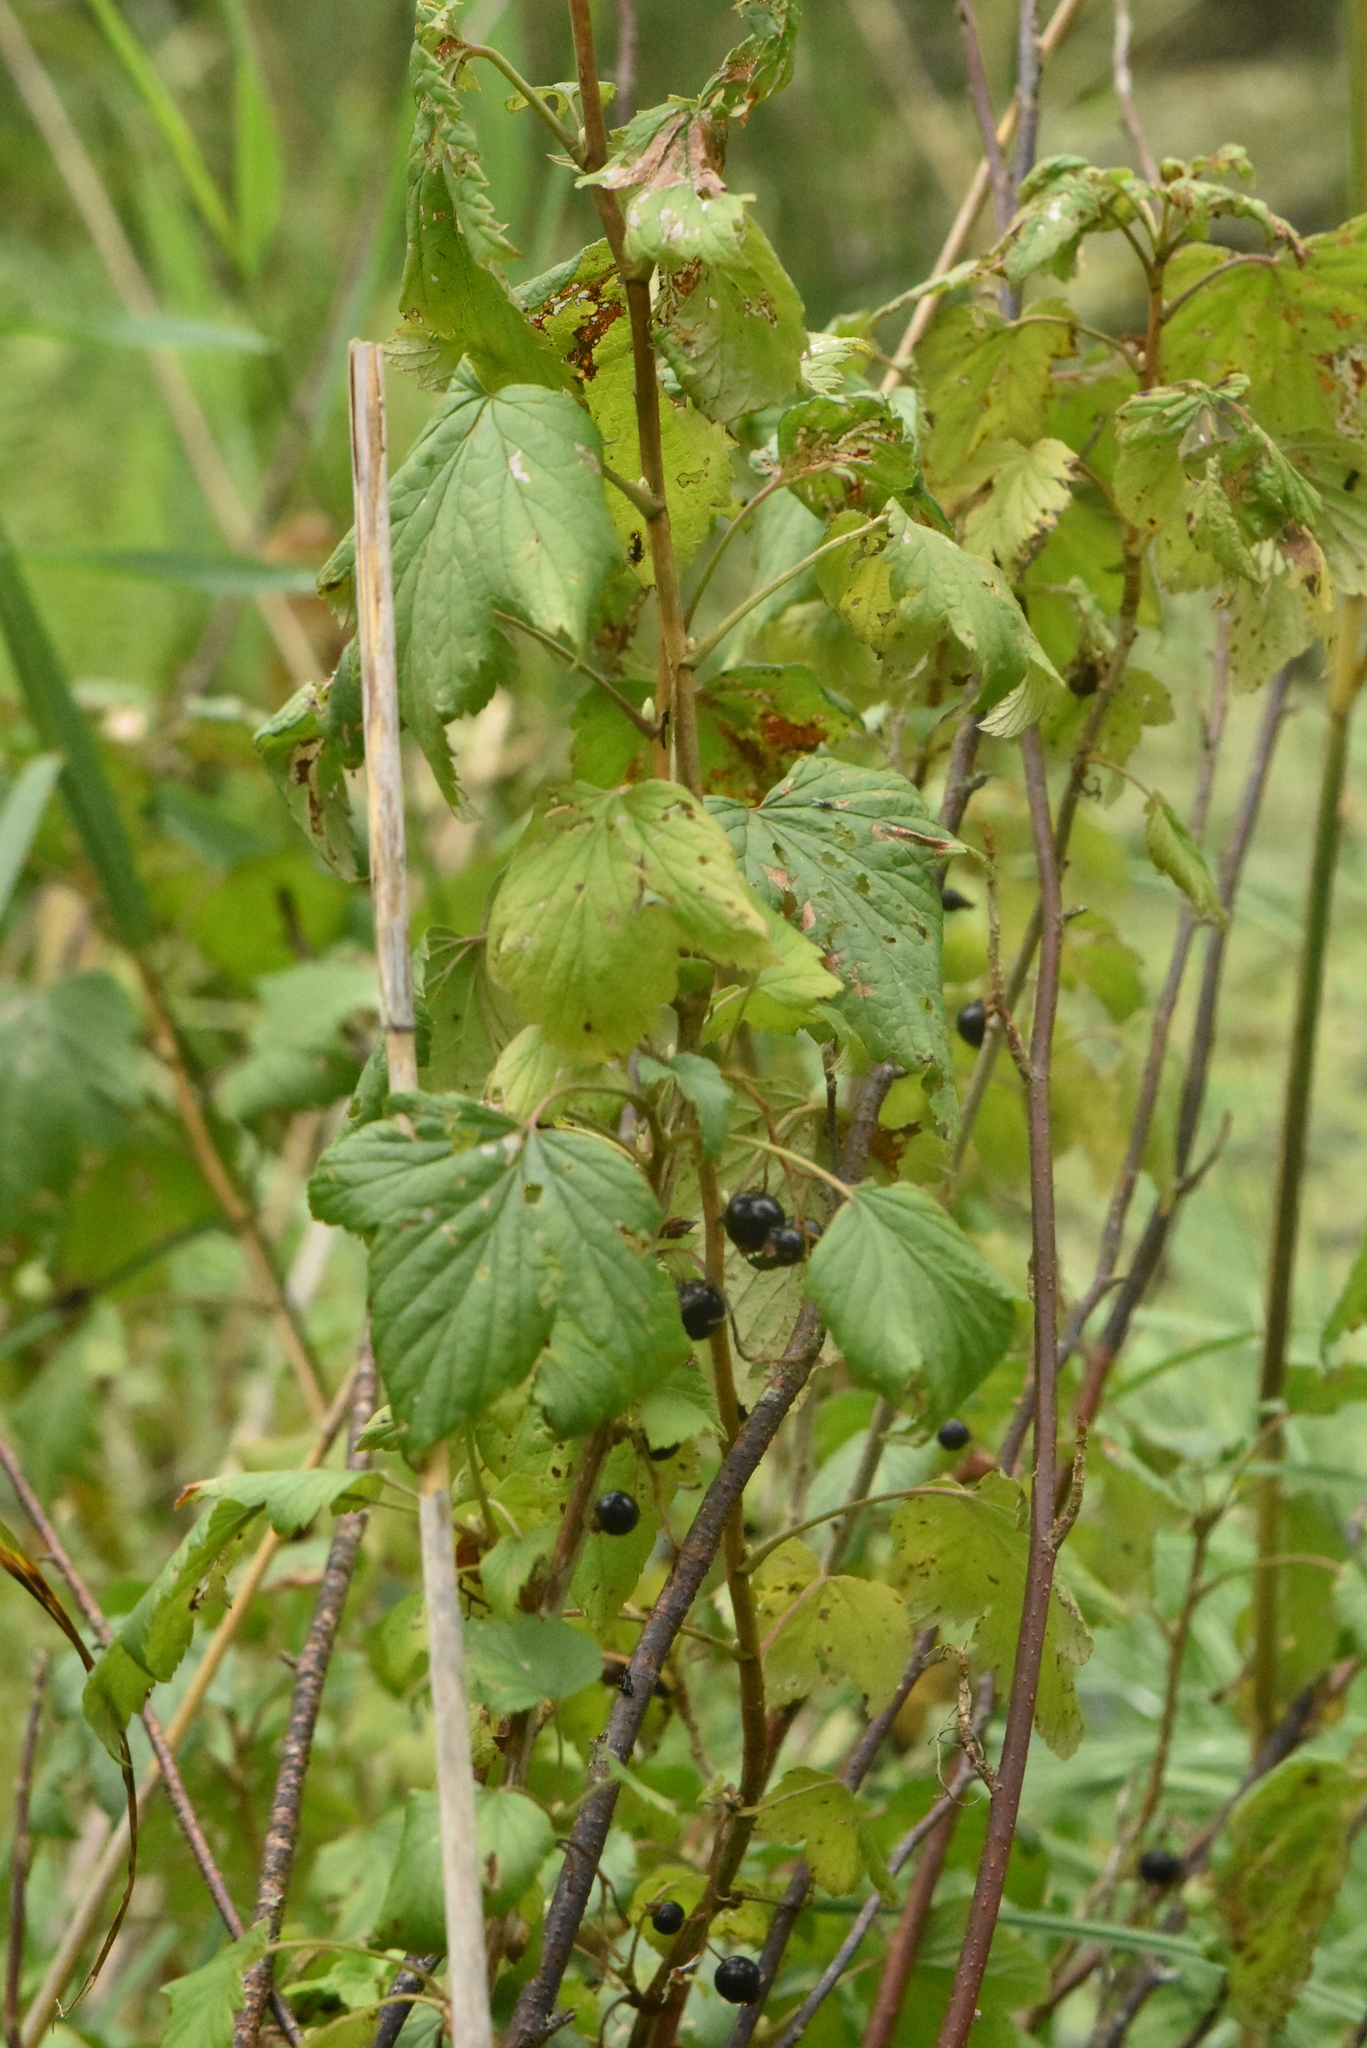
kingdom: Plantae
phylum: Tracheophyta
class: Magnoliopsida
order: Saxifragales
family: Grossulariaceae
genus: Ribes
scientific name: Ribes nigrum
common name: Black currant
